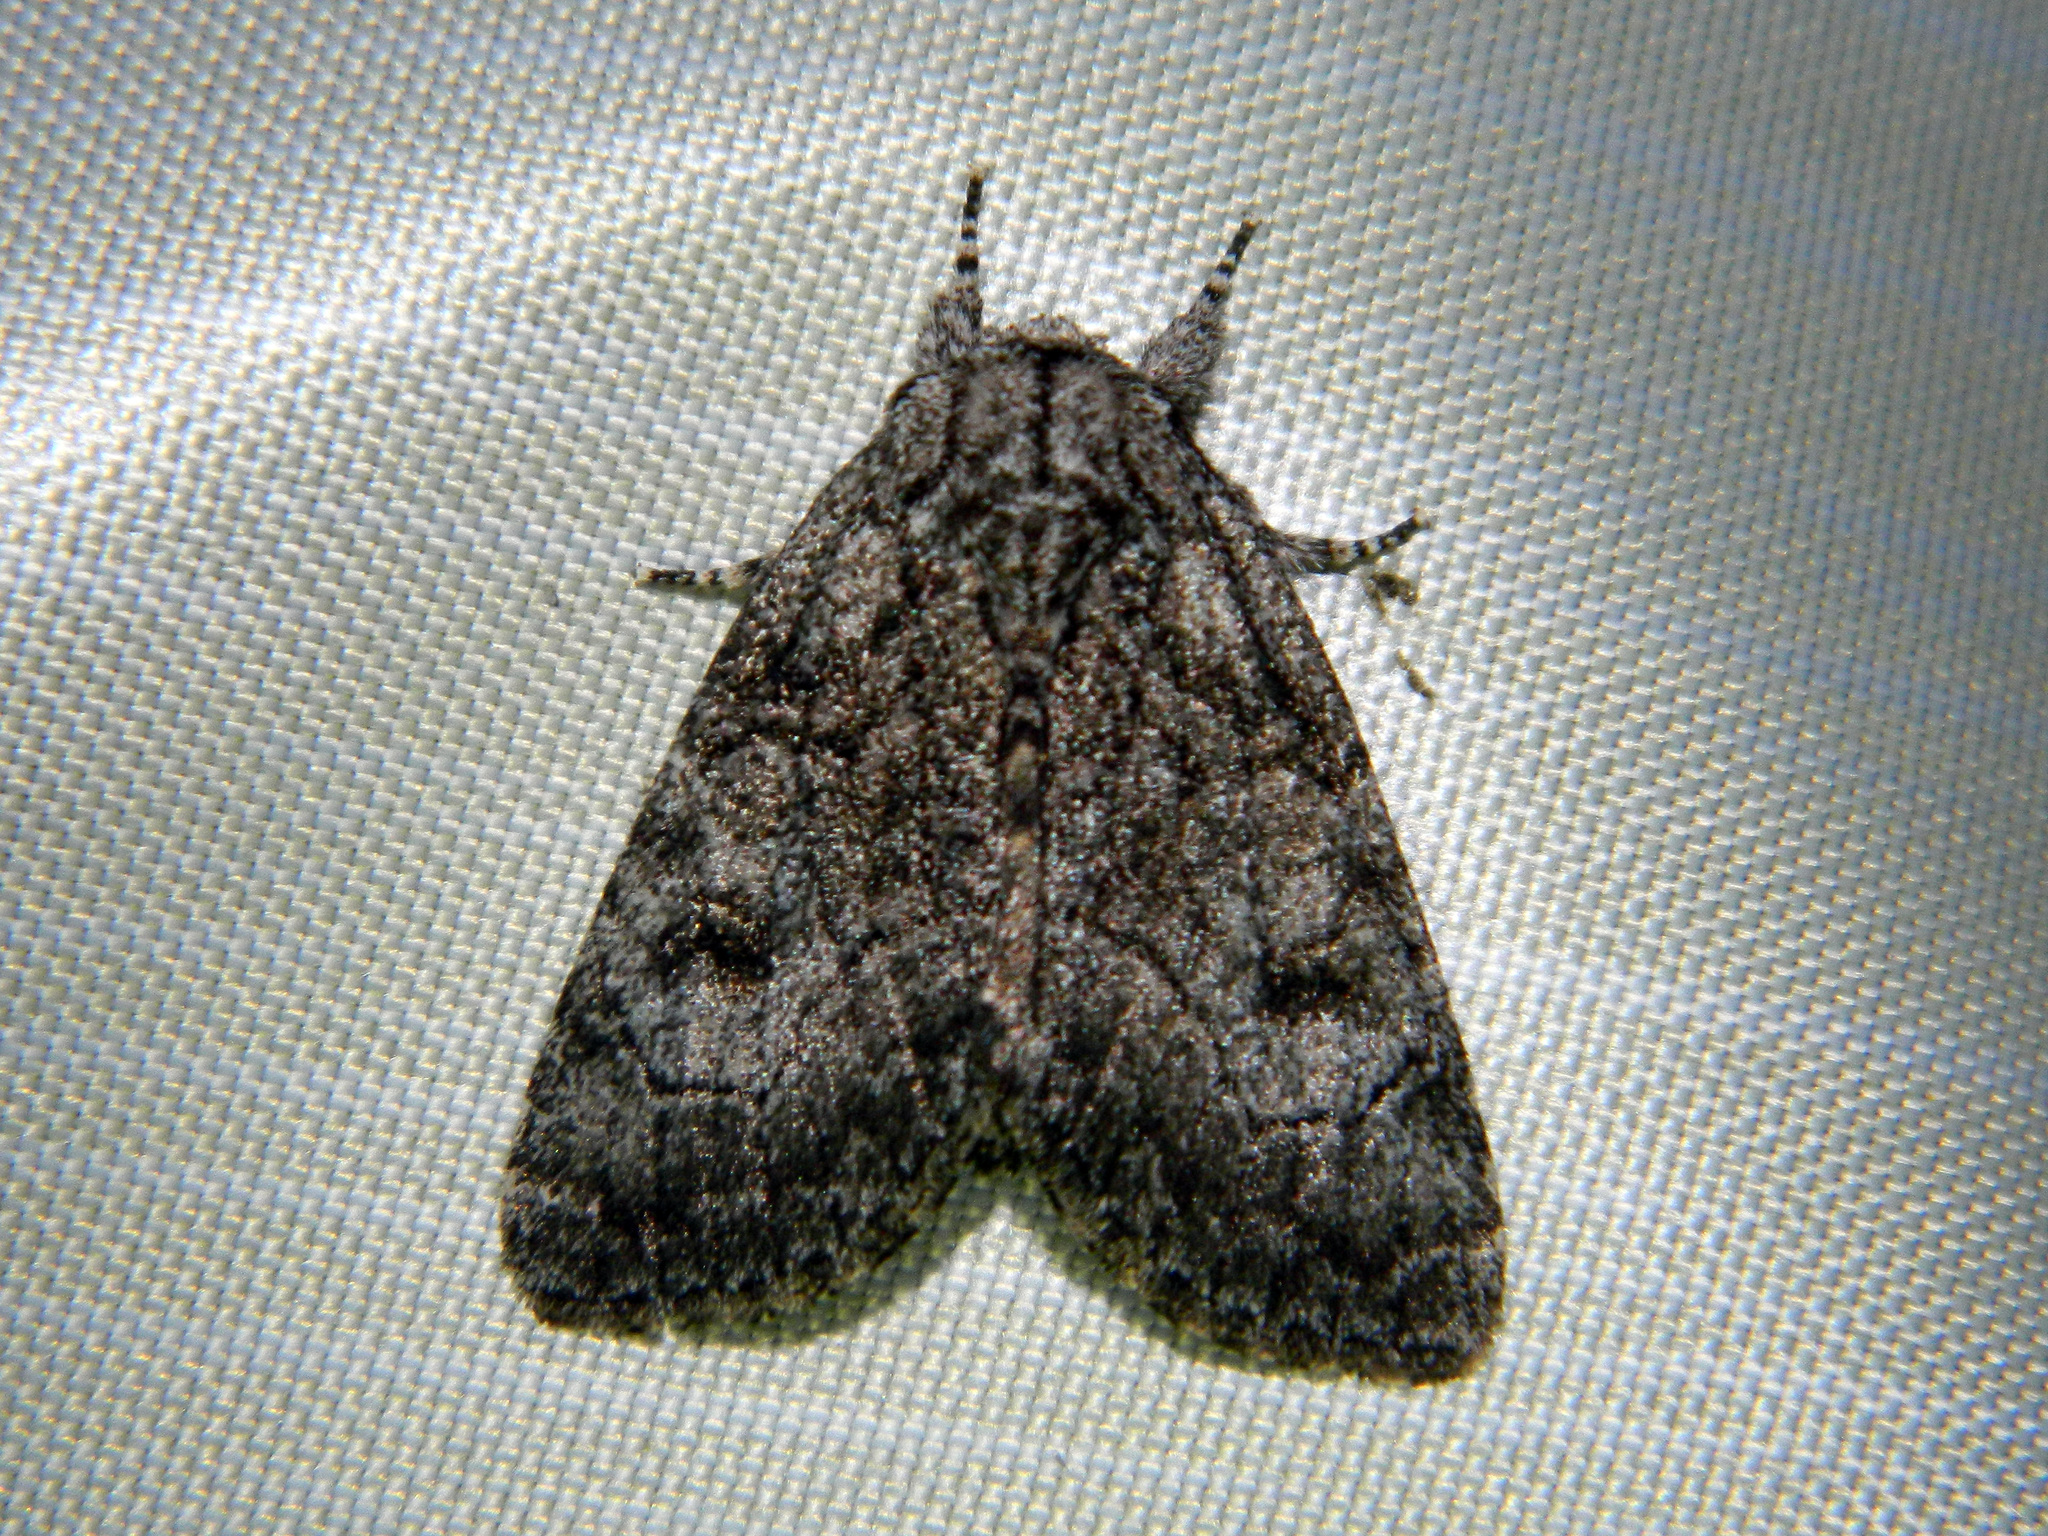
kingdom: Animalia
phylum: Arthropoda
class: Insecta
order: Lepidoptera
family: Noctuidae
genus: Raphia
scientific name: Raphia frater
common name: Brother
